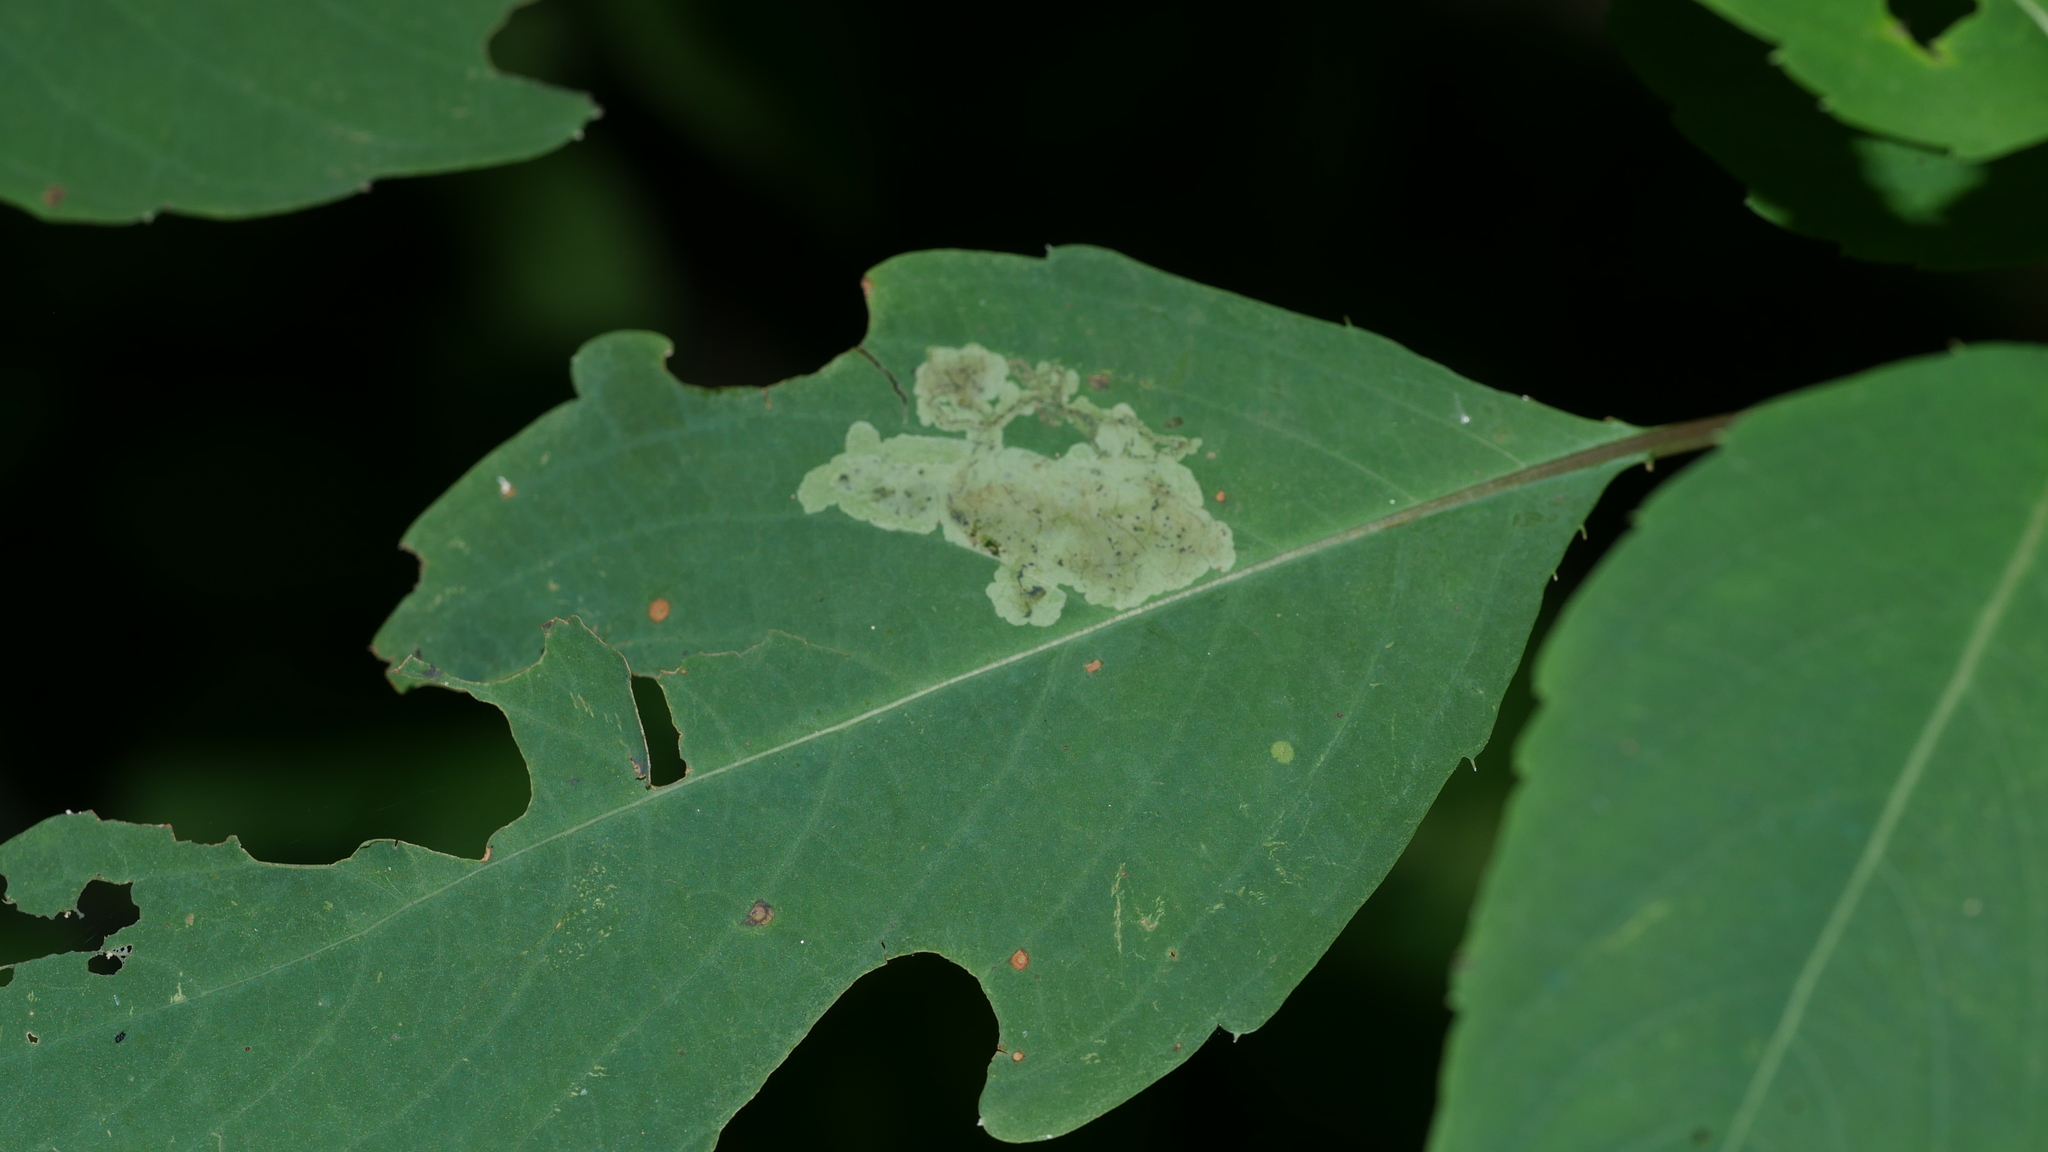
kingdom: Animalia
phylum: Arthropoda
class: Insecta
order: Diptera
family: Agromyzidae
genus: Phytoliriomyza
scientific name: Phytoliriomyza melampyga
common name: Jewelweed leaf-miner fly
